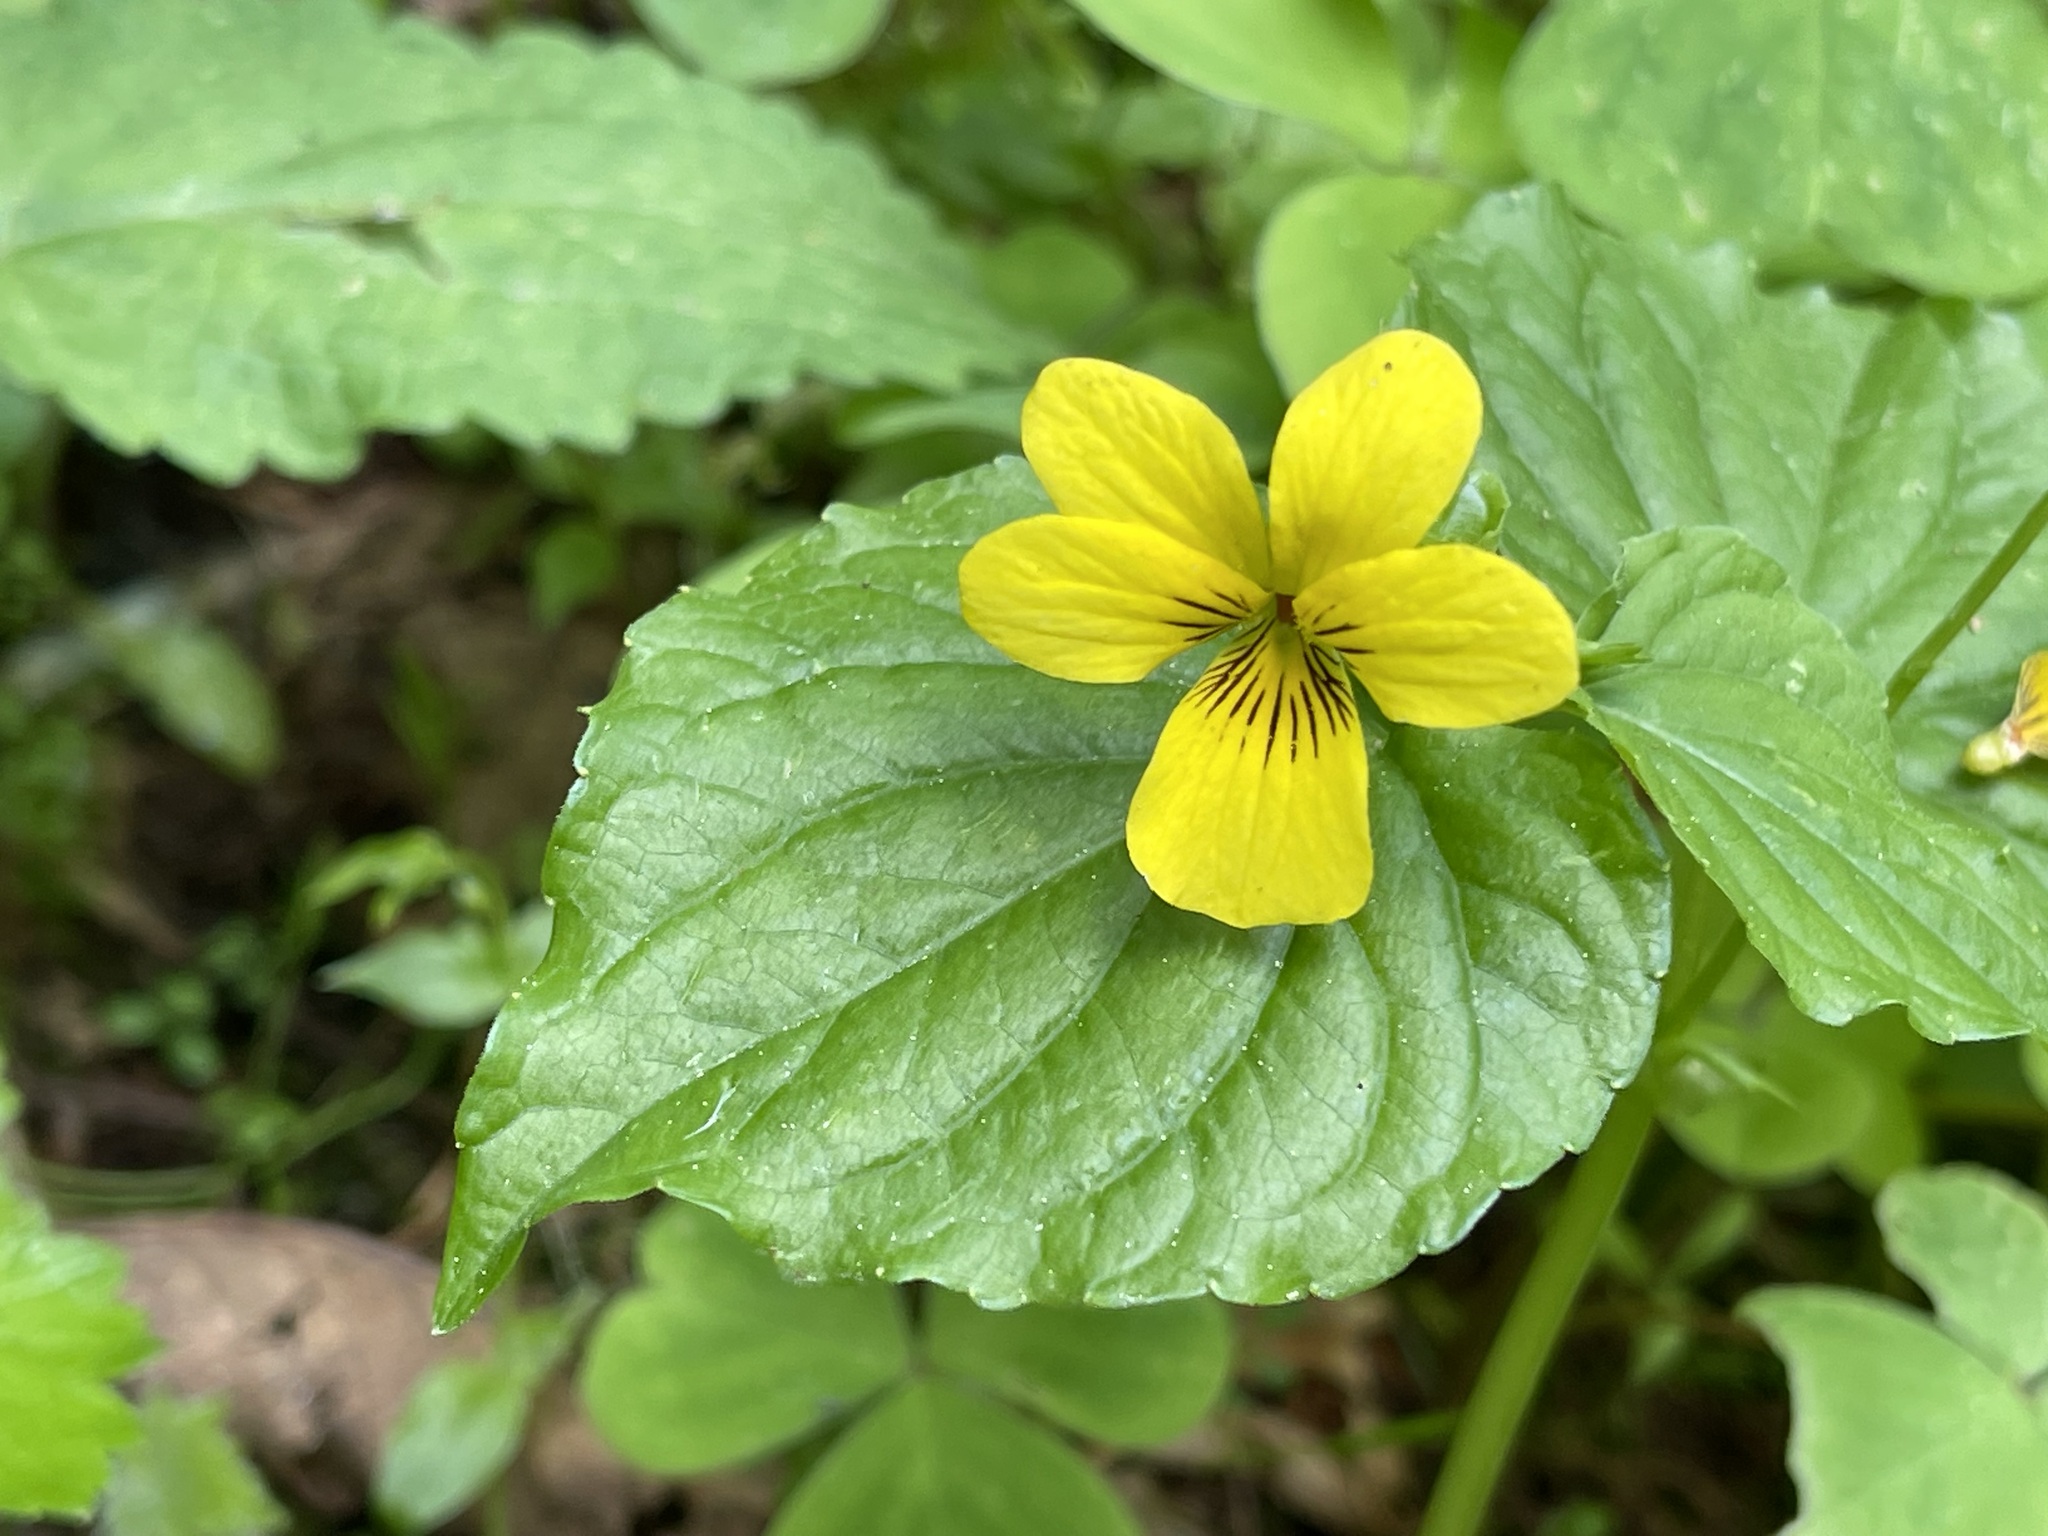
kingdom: Plantae
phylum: Tracheophyta
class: Magnoliopsida
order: Malpighiales
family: Violaceae
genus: Viola
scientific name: Viola glabella
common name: Stream violet
